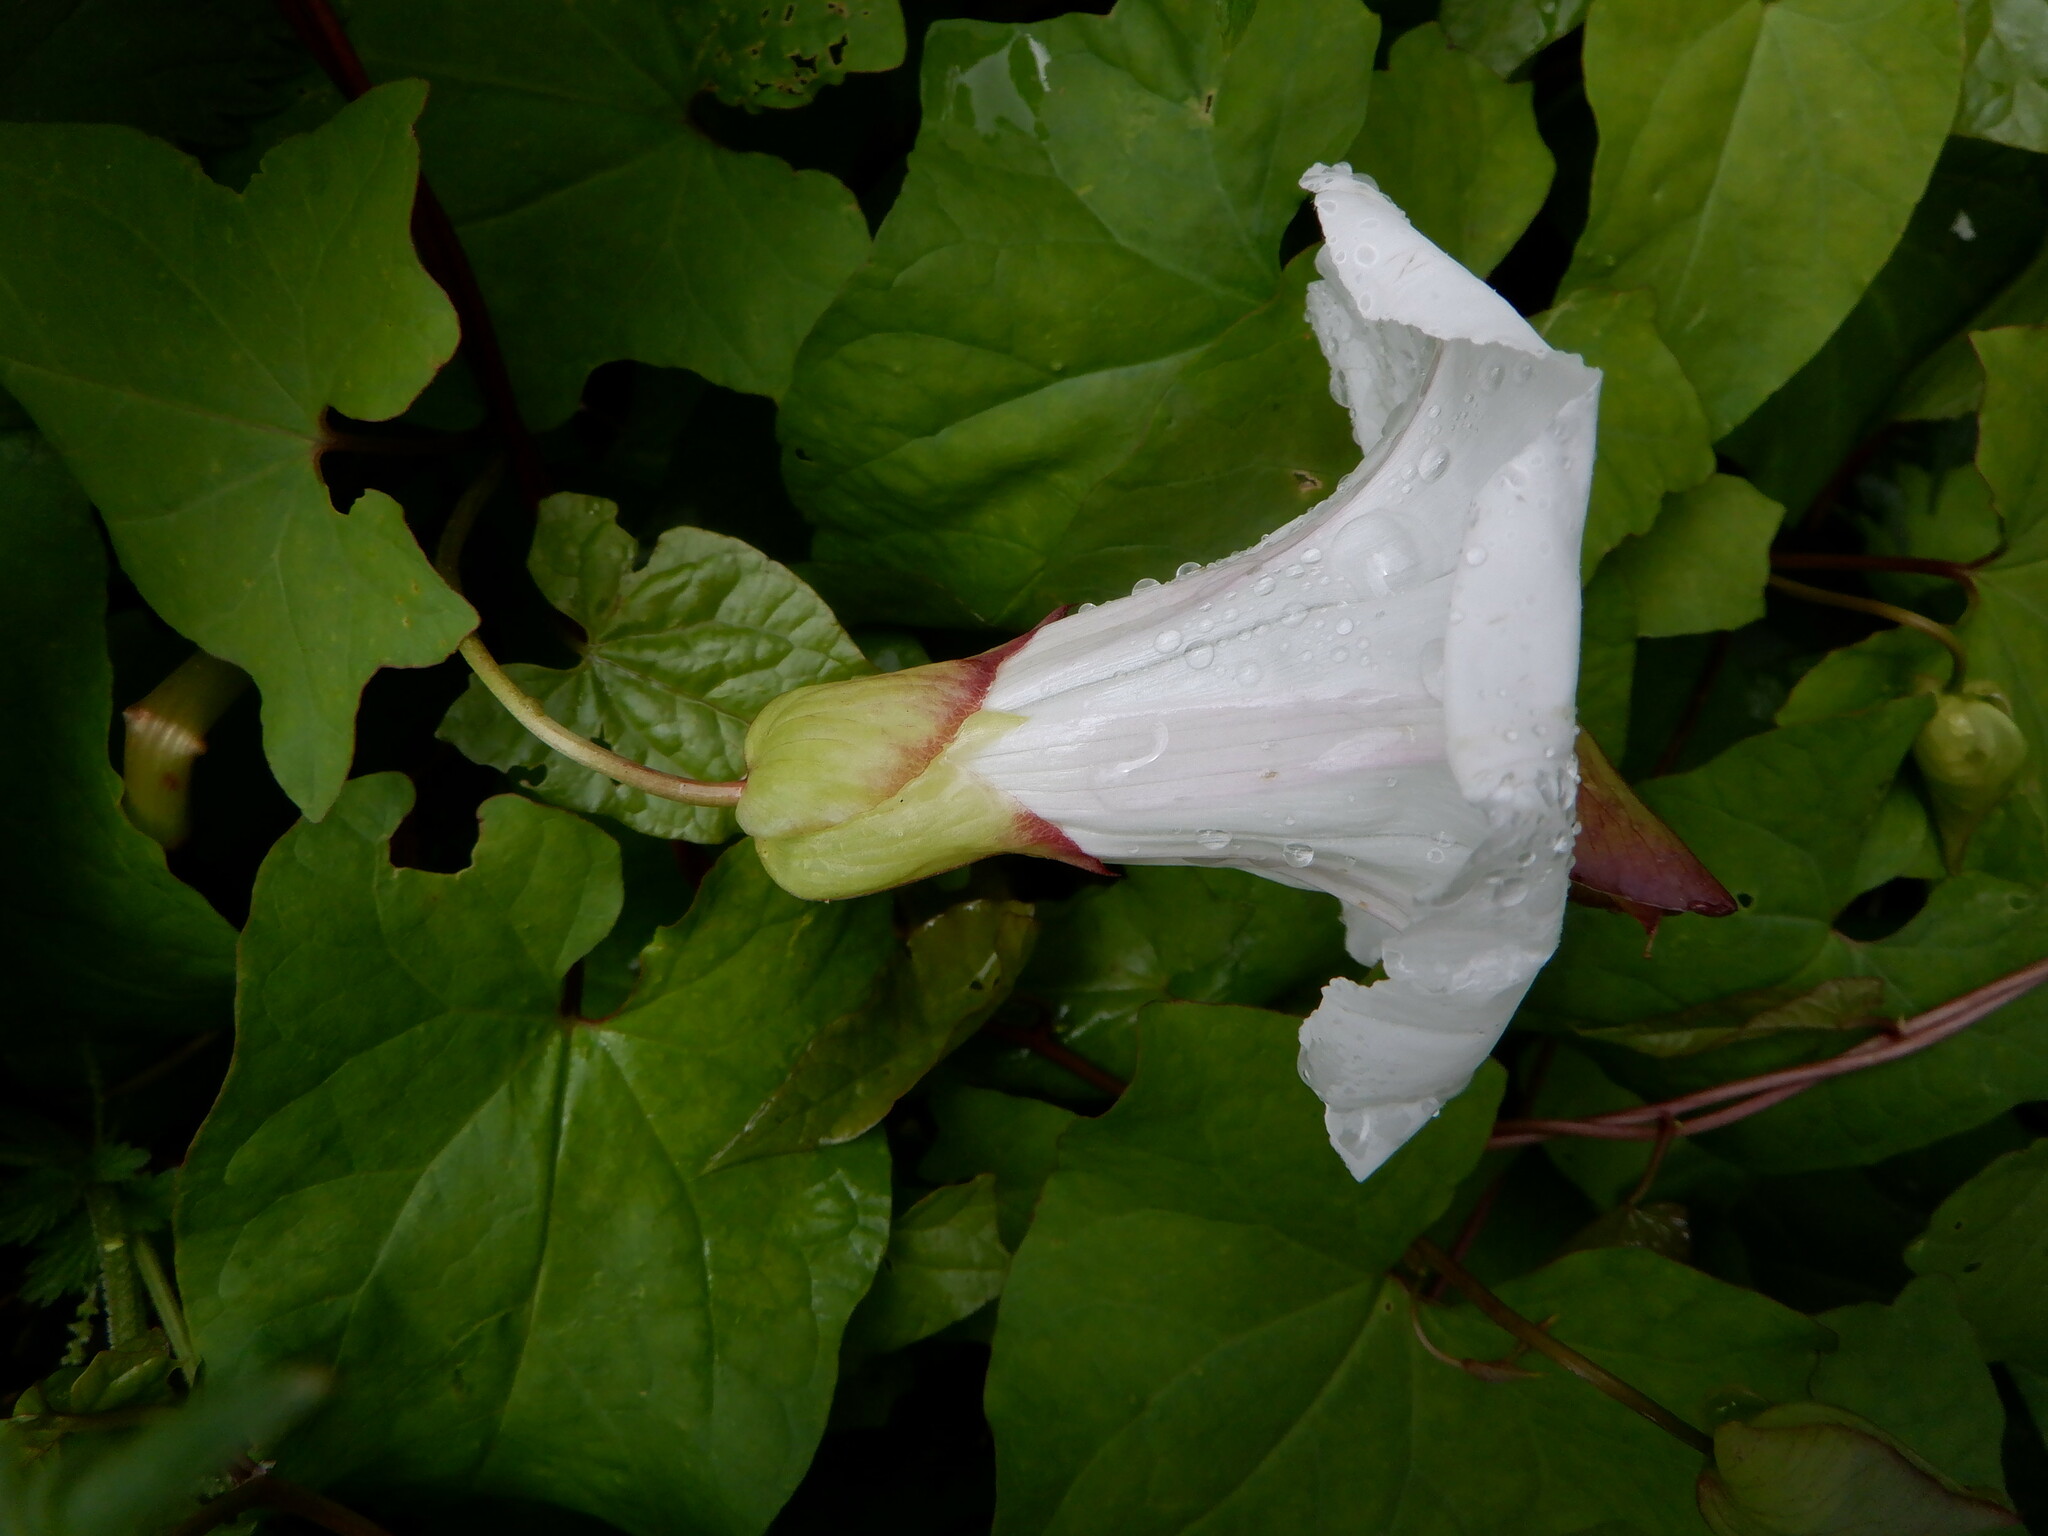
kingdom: Plantae
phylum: Tracheophyta
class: Magnoliopsida
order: Solanales
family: Convolvulaceae
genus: Calystegia
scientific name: Calystegia silvatica
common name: Large bindweed
